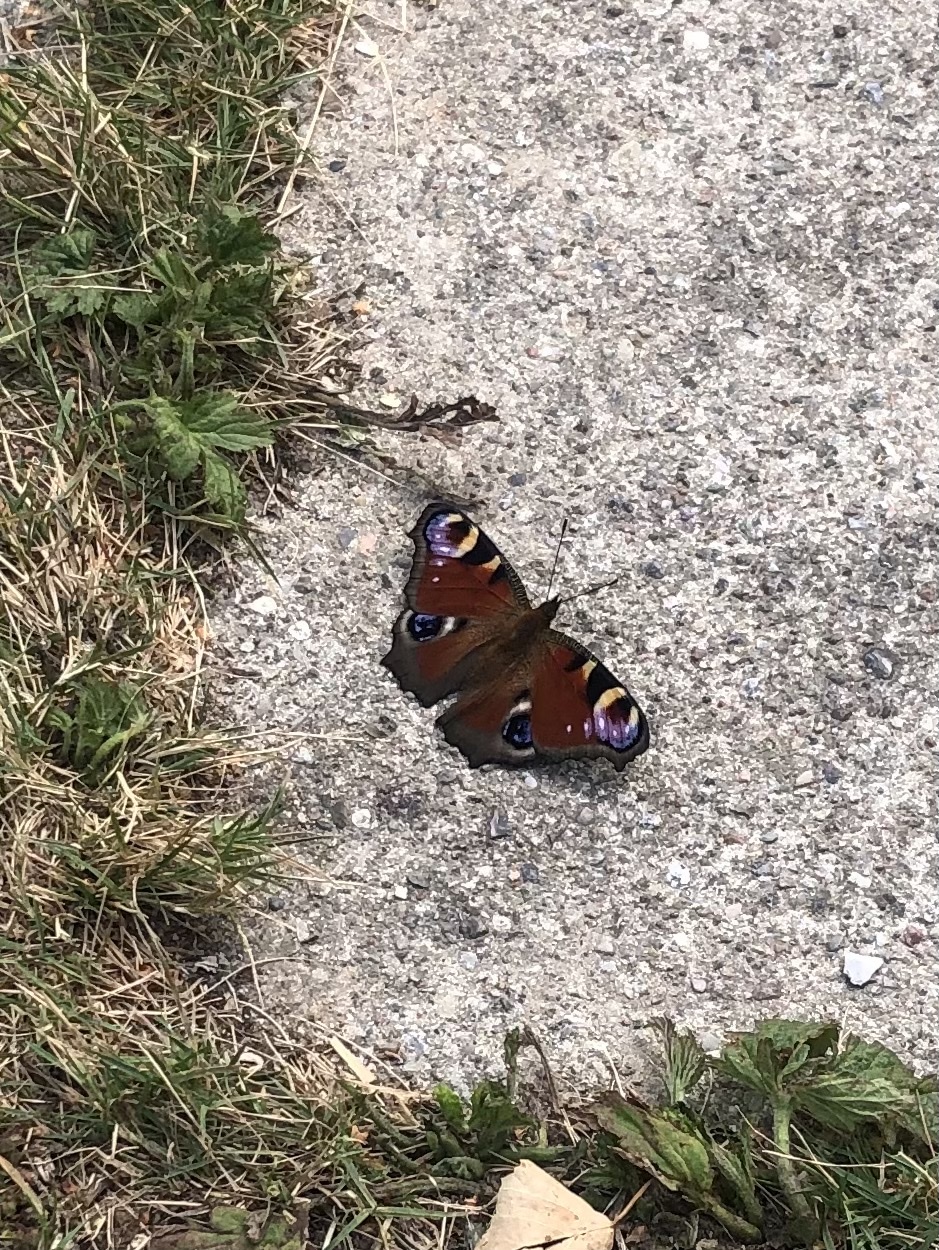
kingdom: Animalia
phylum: Arthropoda
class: Insecta
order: Lepidoptera
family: Nymphalidae
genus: Aglais
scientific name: Aglais io
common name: Peacock
